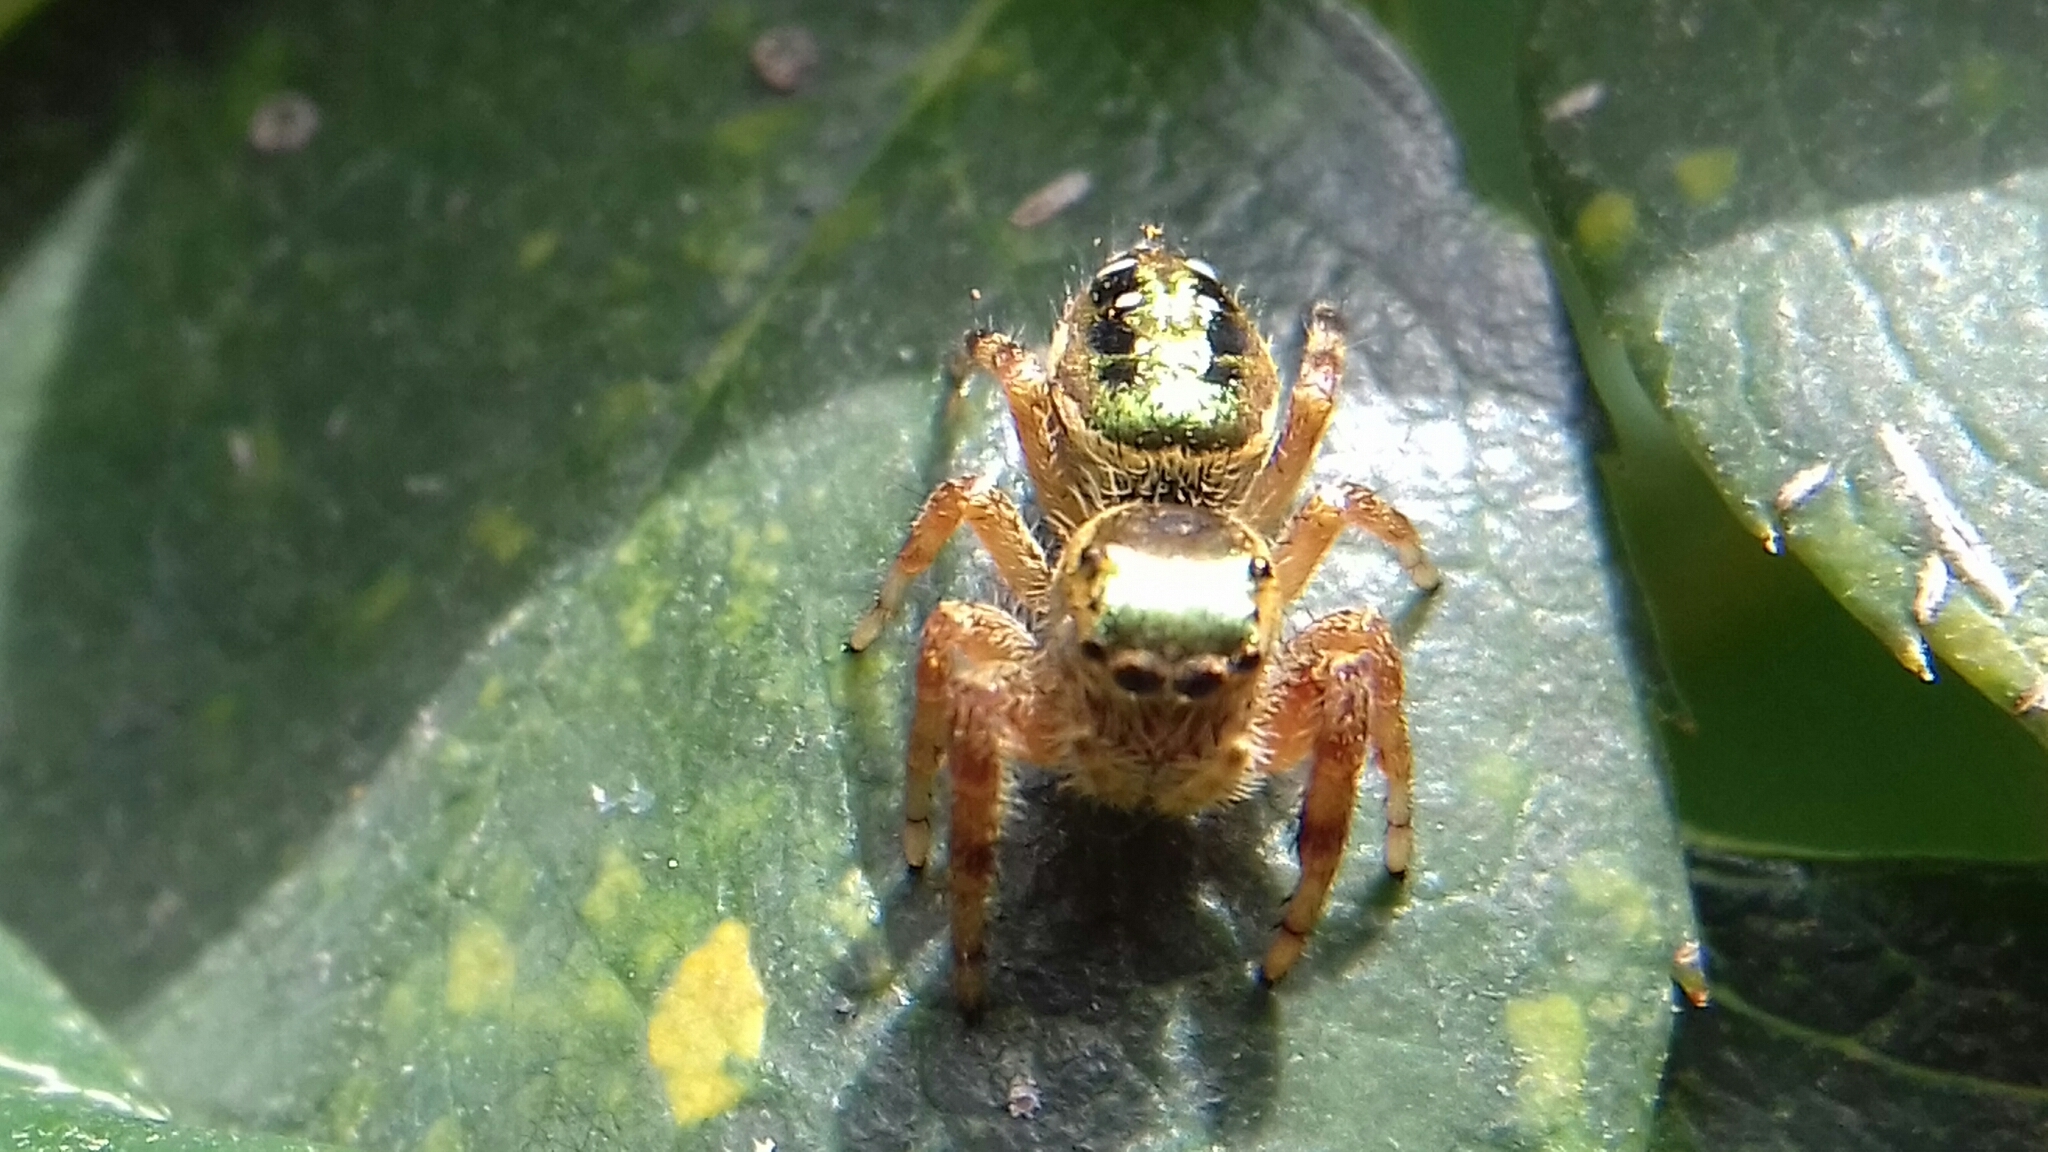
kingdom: Animalia
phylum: Arthropoda
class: Arachnida
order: Araneae
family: Salticidae
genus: Paraphidippus
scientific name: Paraphidippus aurantius
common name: Jumping spiders
